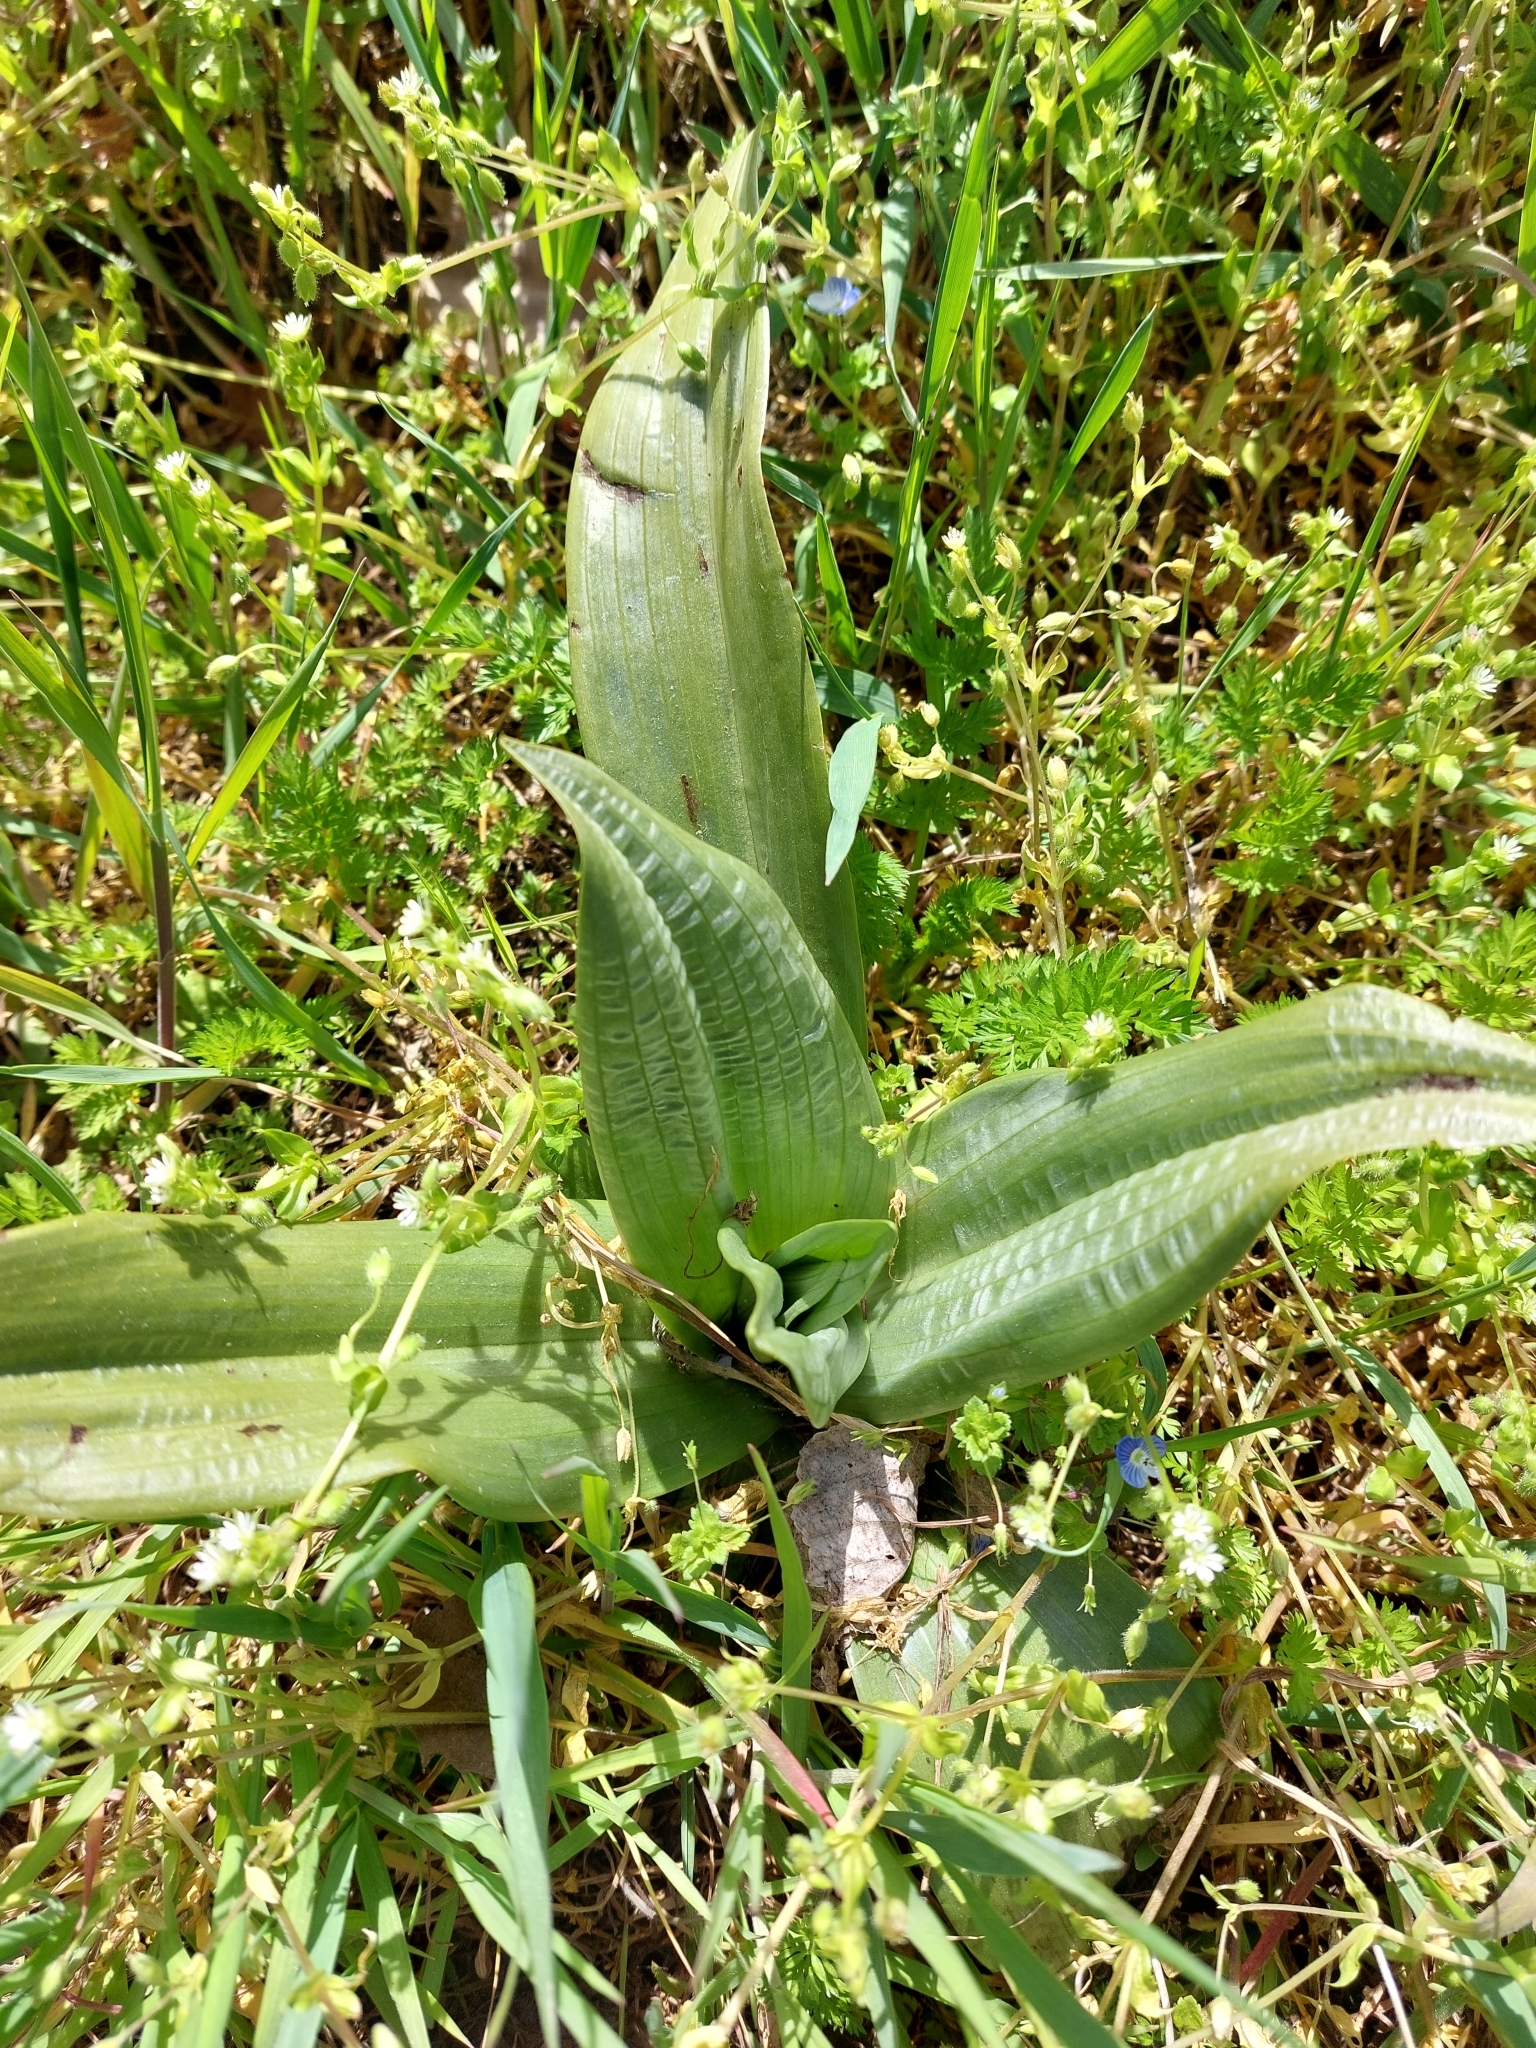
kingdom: Plantae
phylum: Tracheophyta
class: Liliopsida
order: Asparagales
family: Orchidaceae
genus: Himantoglossum
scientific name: Himantoglossum hircinum
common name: Lizard orchid
